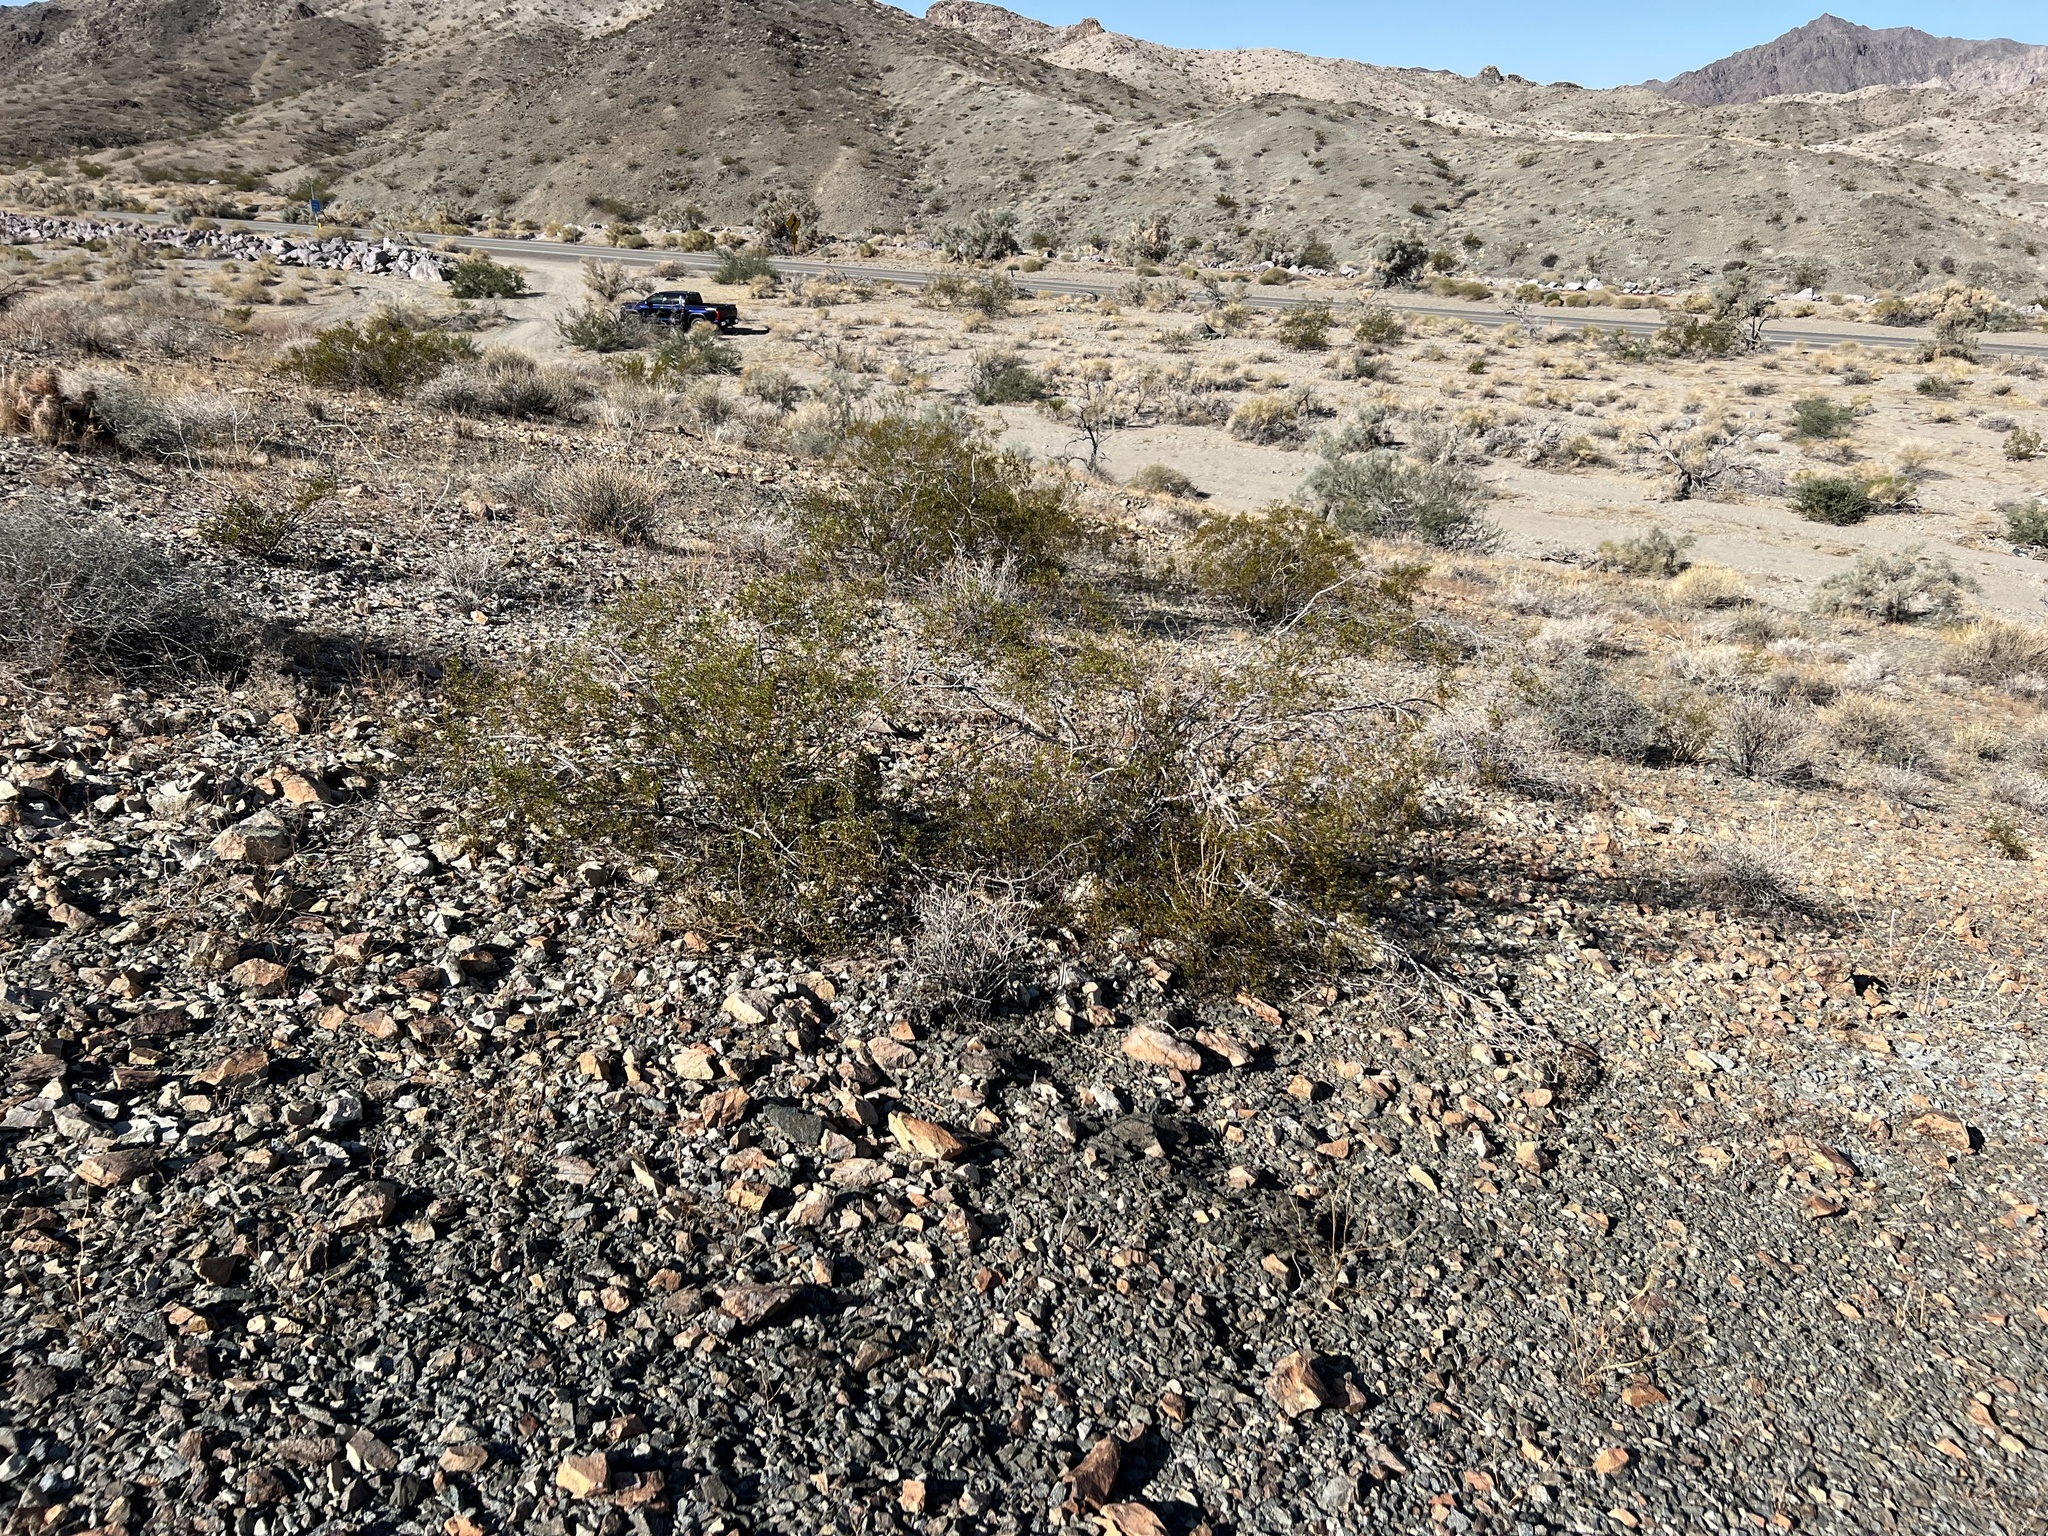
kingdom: Plantae
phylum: Tracheophyta
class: Magnoliopsida
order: Zygophyllales
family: Zygophyllaceae
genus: Larrea
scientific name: Larrea tridentata
